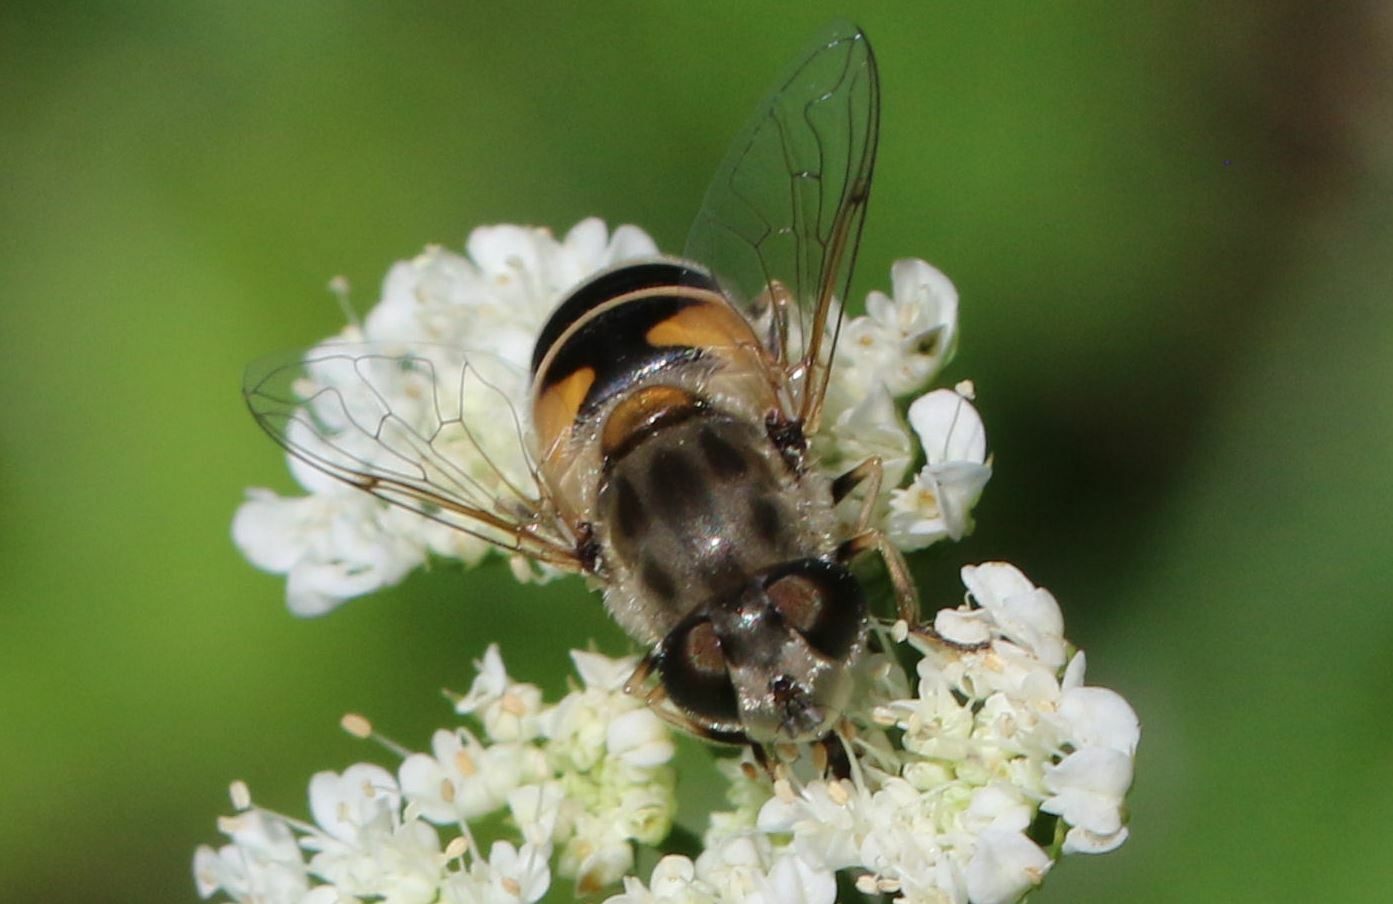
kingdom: Animalia
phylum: Arthropoda
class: Insecta
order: Diptera
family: Syrphidae
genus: Eristalis
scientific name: Eristalis arbustorum
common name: Hover fly
